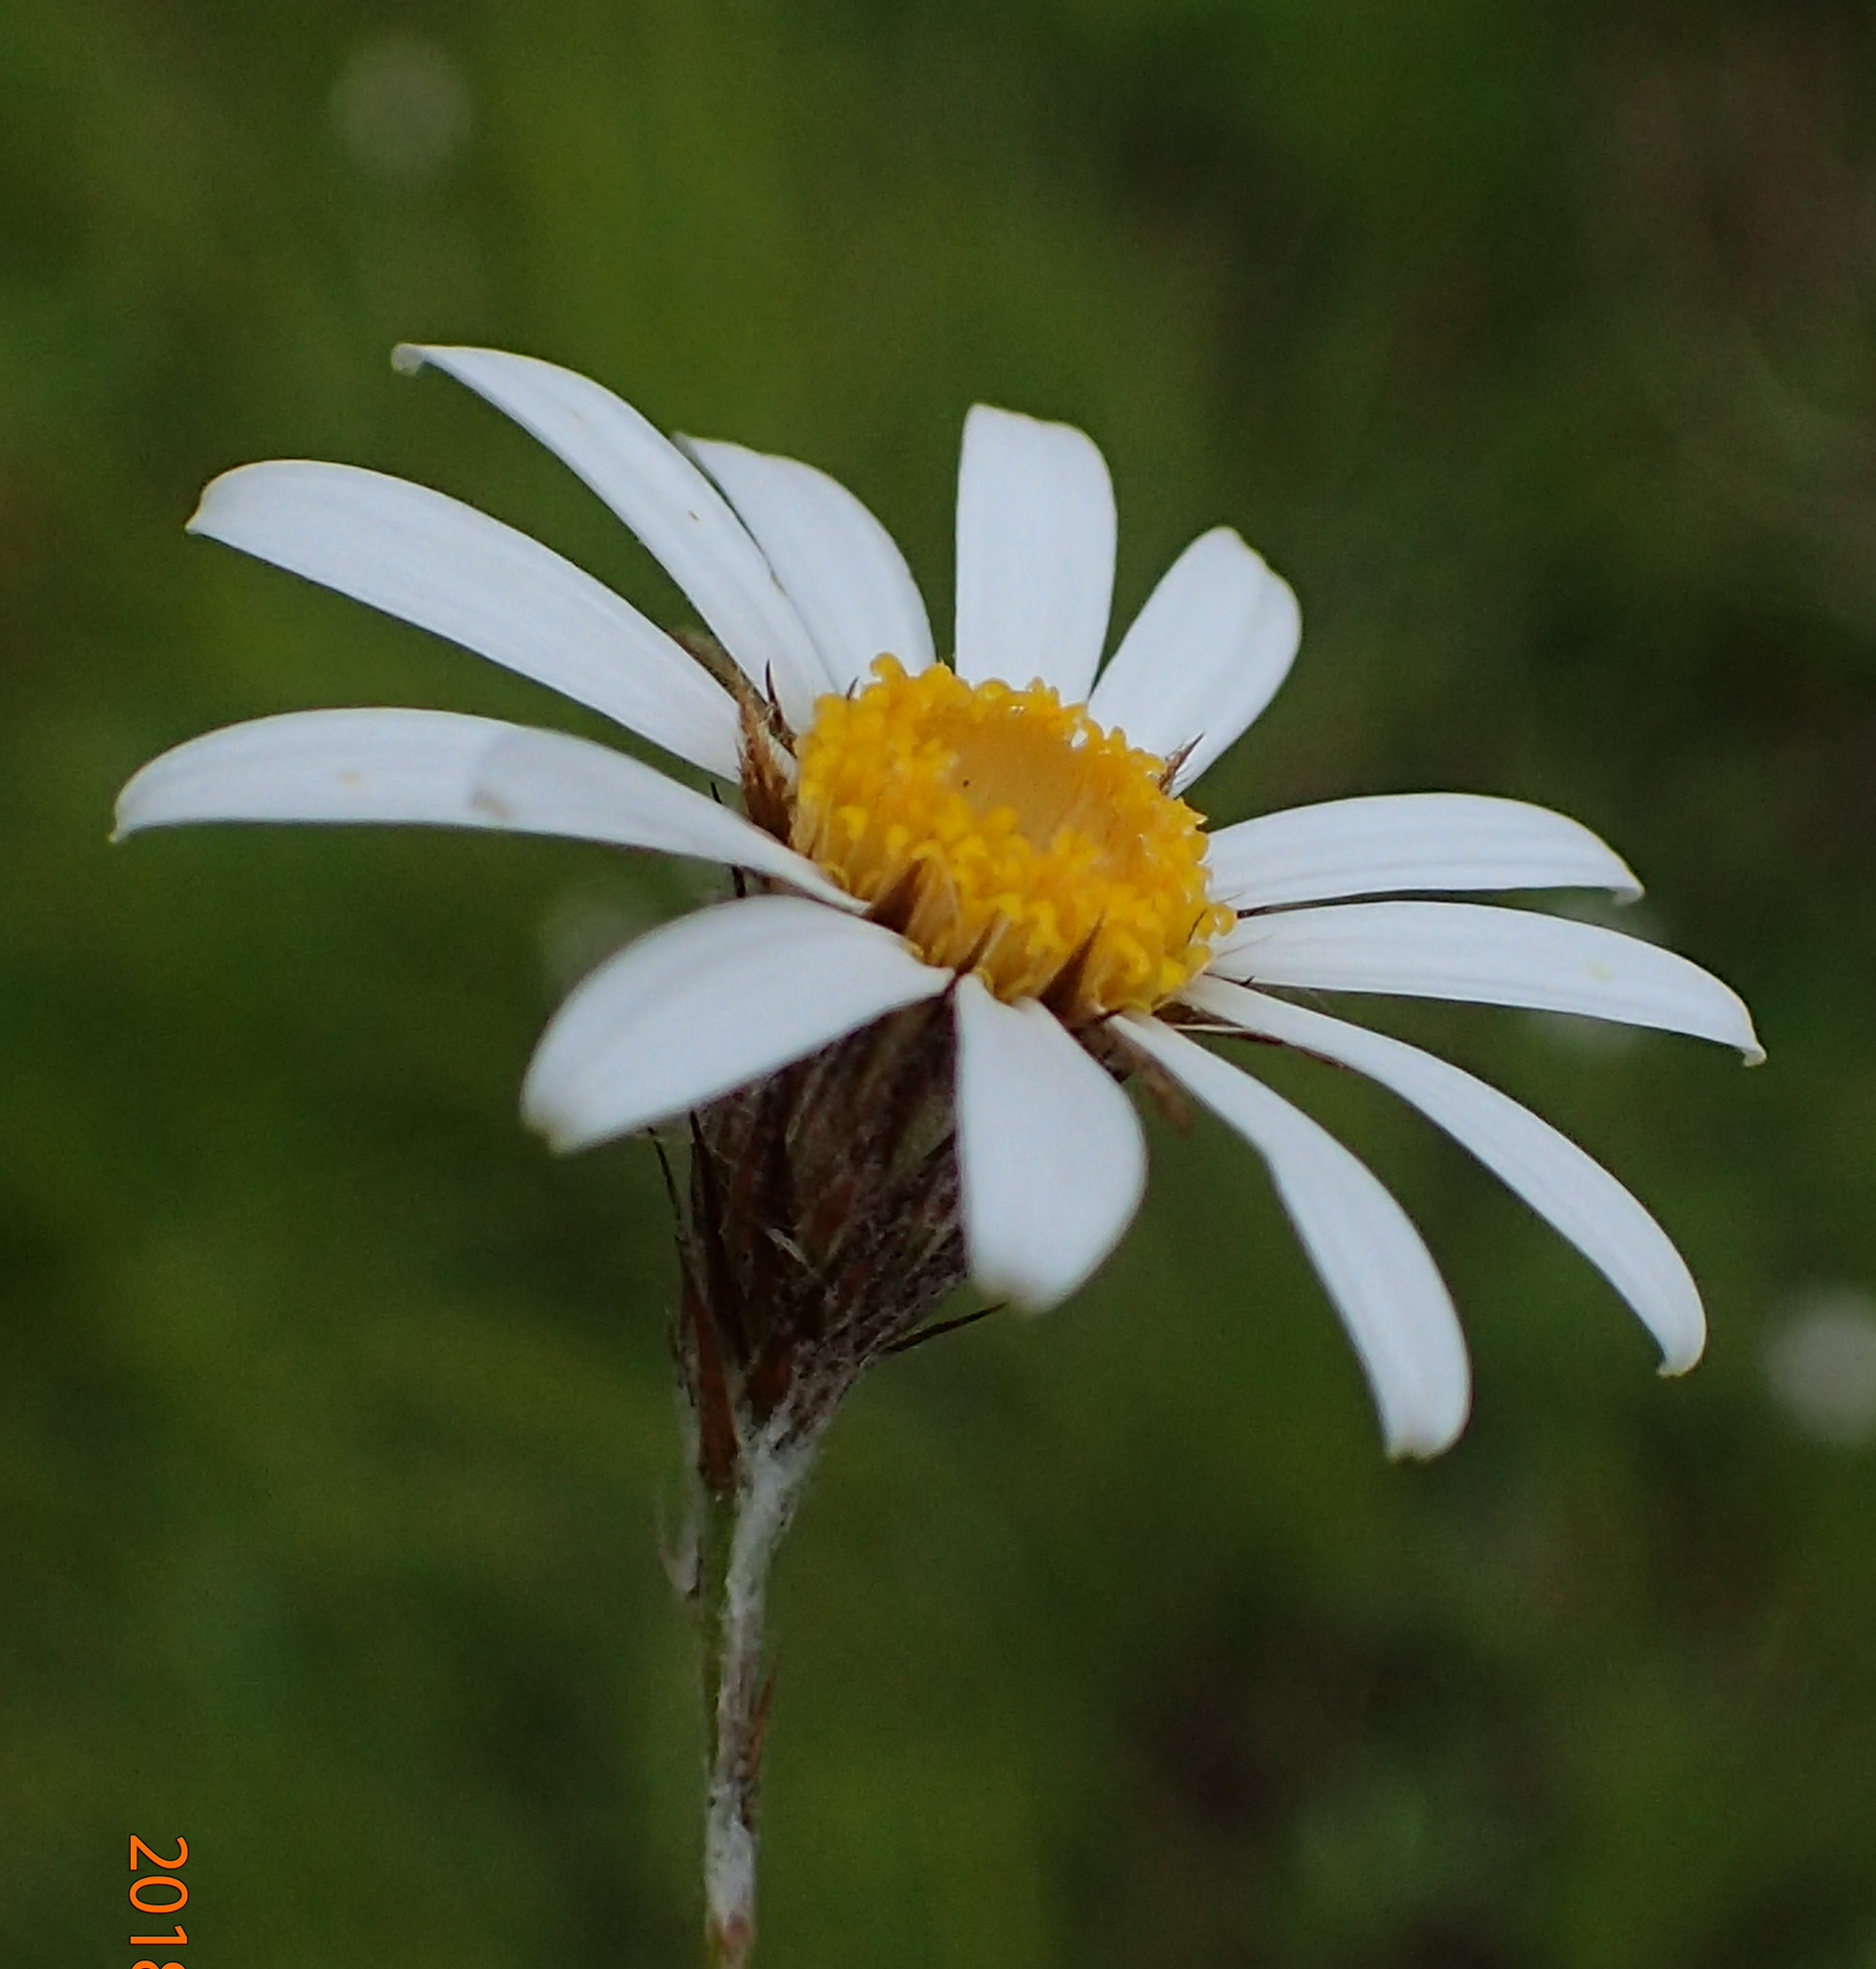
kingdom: Plantae
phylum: Tracheophyta
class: Magnoliopsida
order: Asterales
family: Asteraceae
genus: Athrixia
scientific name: Athrixia angustissima
